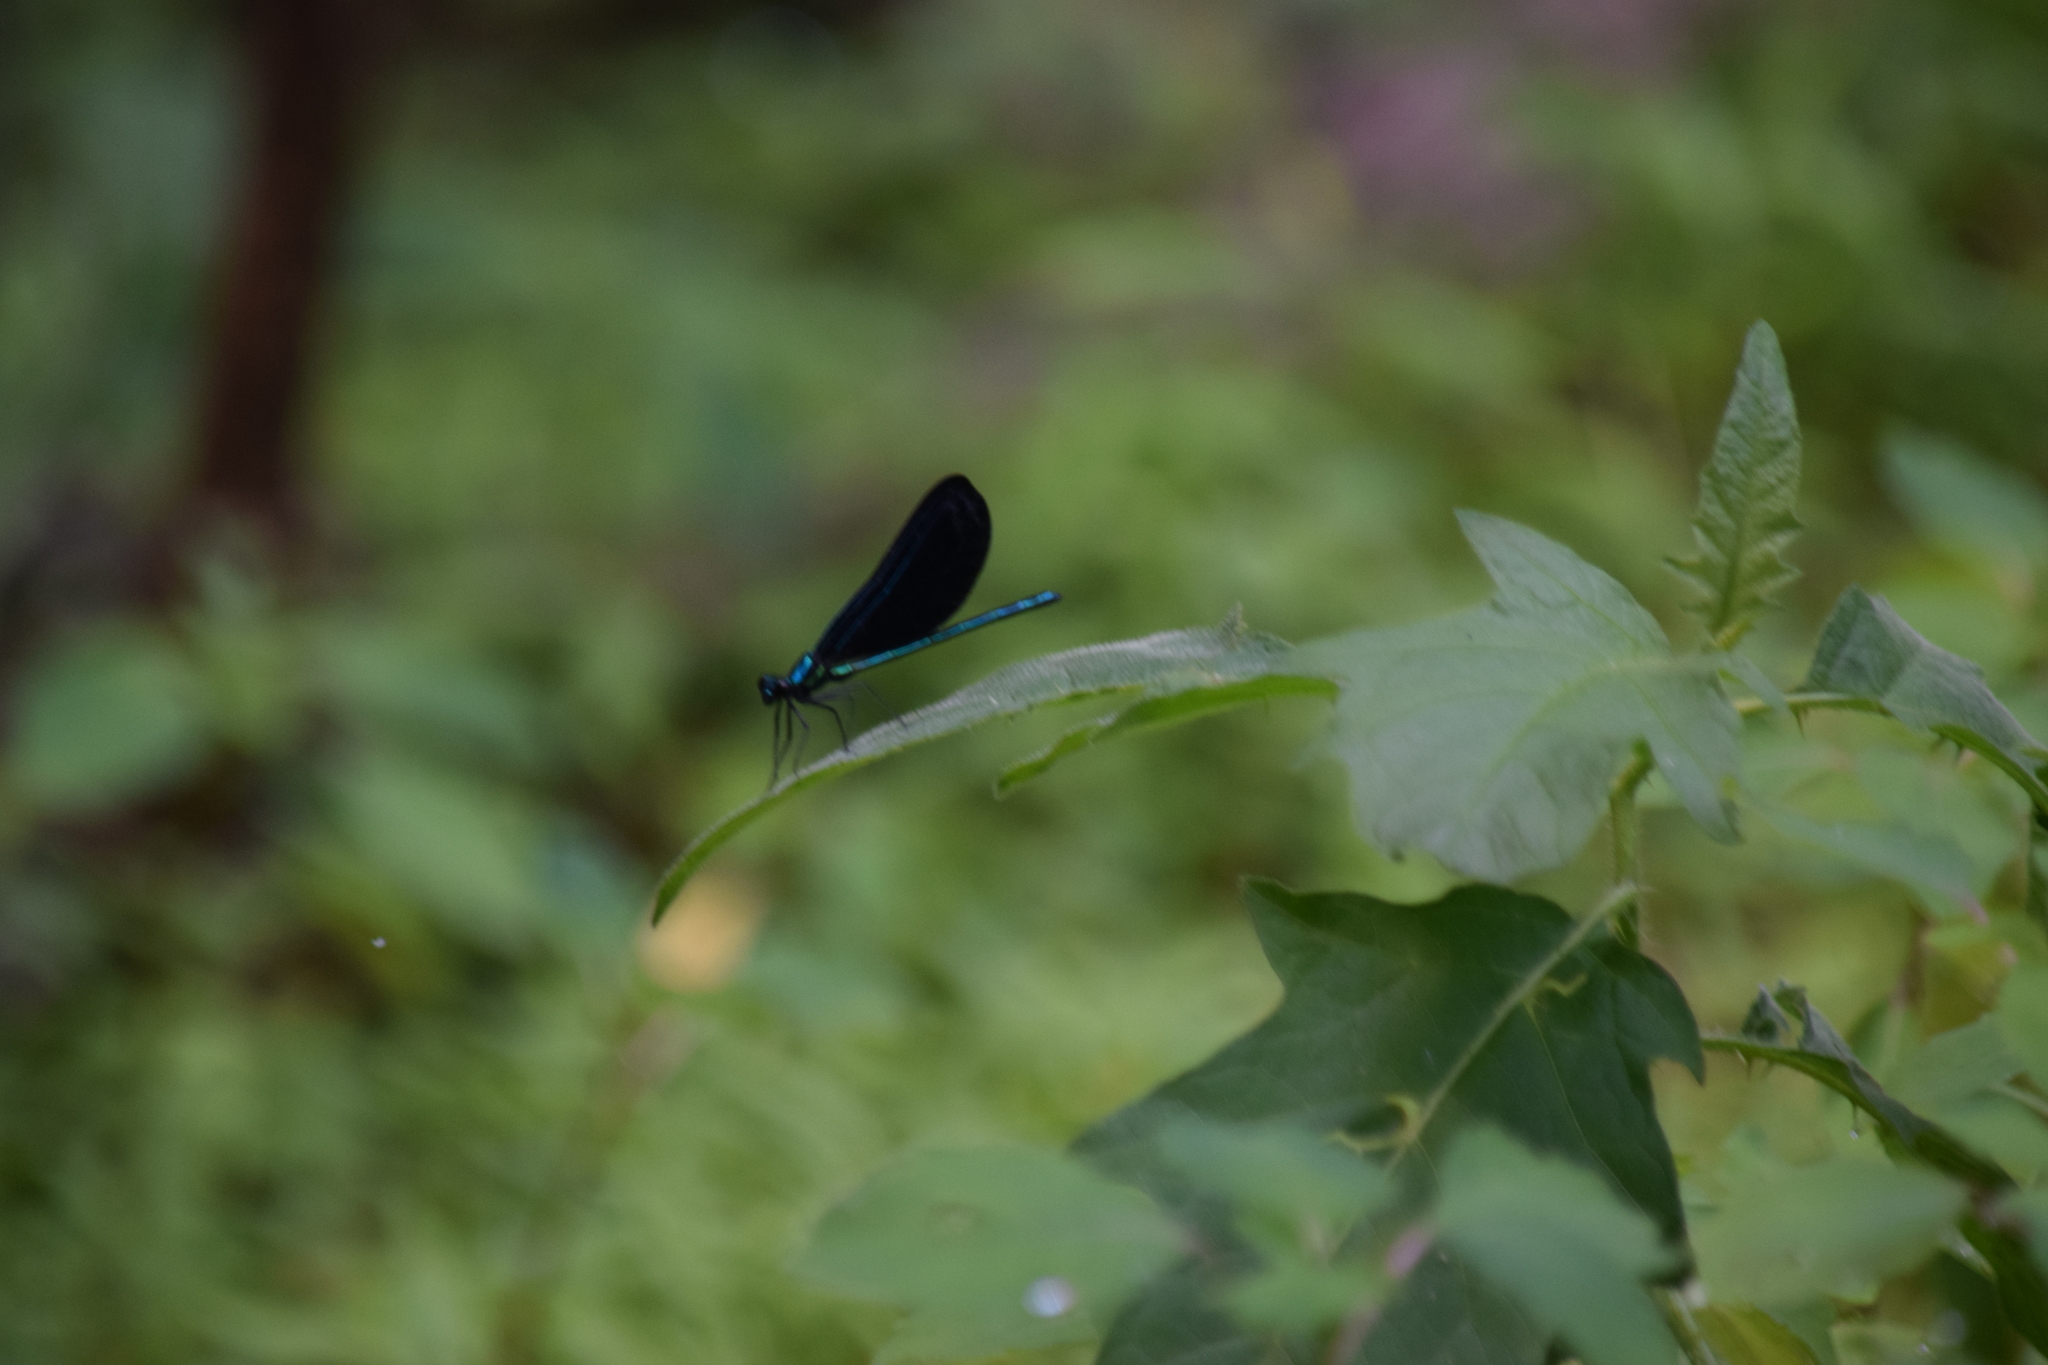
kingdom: Animalia
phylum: Arthropoda
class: Insecta
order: Odonata
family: Calopterygidae
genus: Calopteryx
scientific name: Calopteryx maculata
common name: Ebony jewelwing
